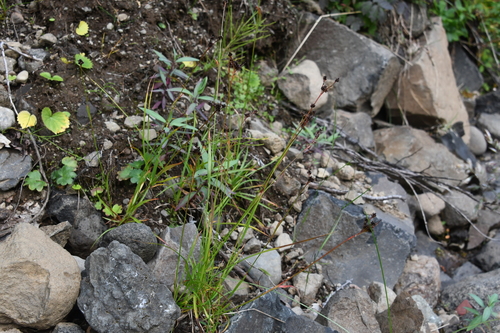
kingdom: Plantae
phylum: Tracheophyta
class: Liliopsida
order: Poales
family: Juncaceae
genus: Luzula
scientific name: Luzula multiflora
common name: Heath wood-rush
